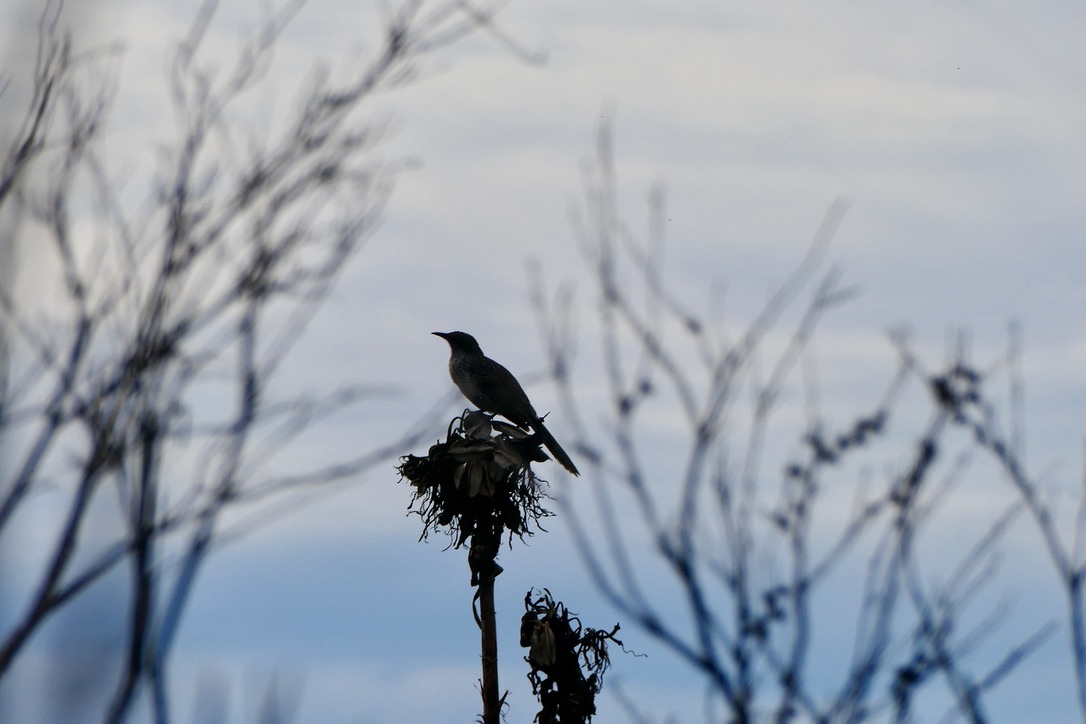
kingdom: Animalia
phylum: Chordata
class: Aves
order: Passeriformes
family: Meliphagidae
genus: Anthochaera
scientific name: Anthochaera chrysoptera
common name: Little wattlebird
